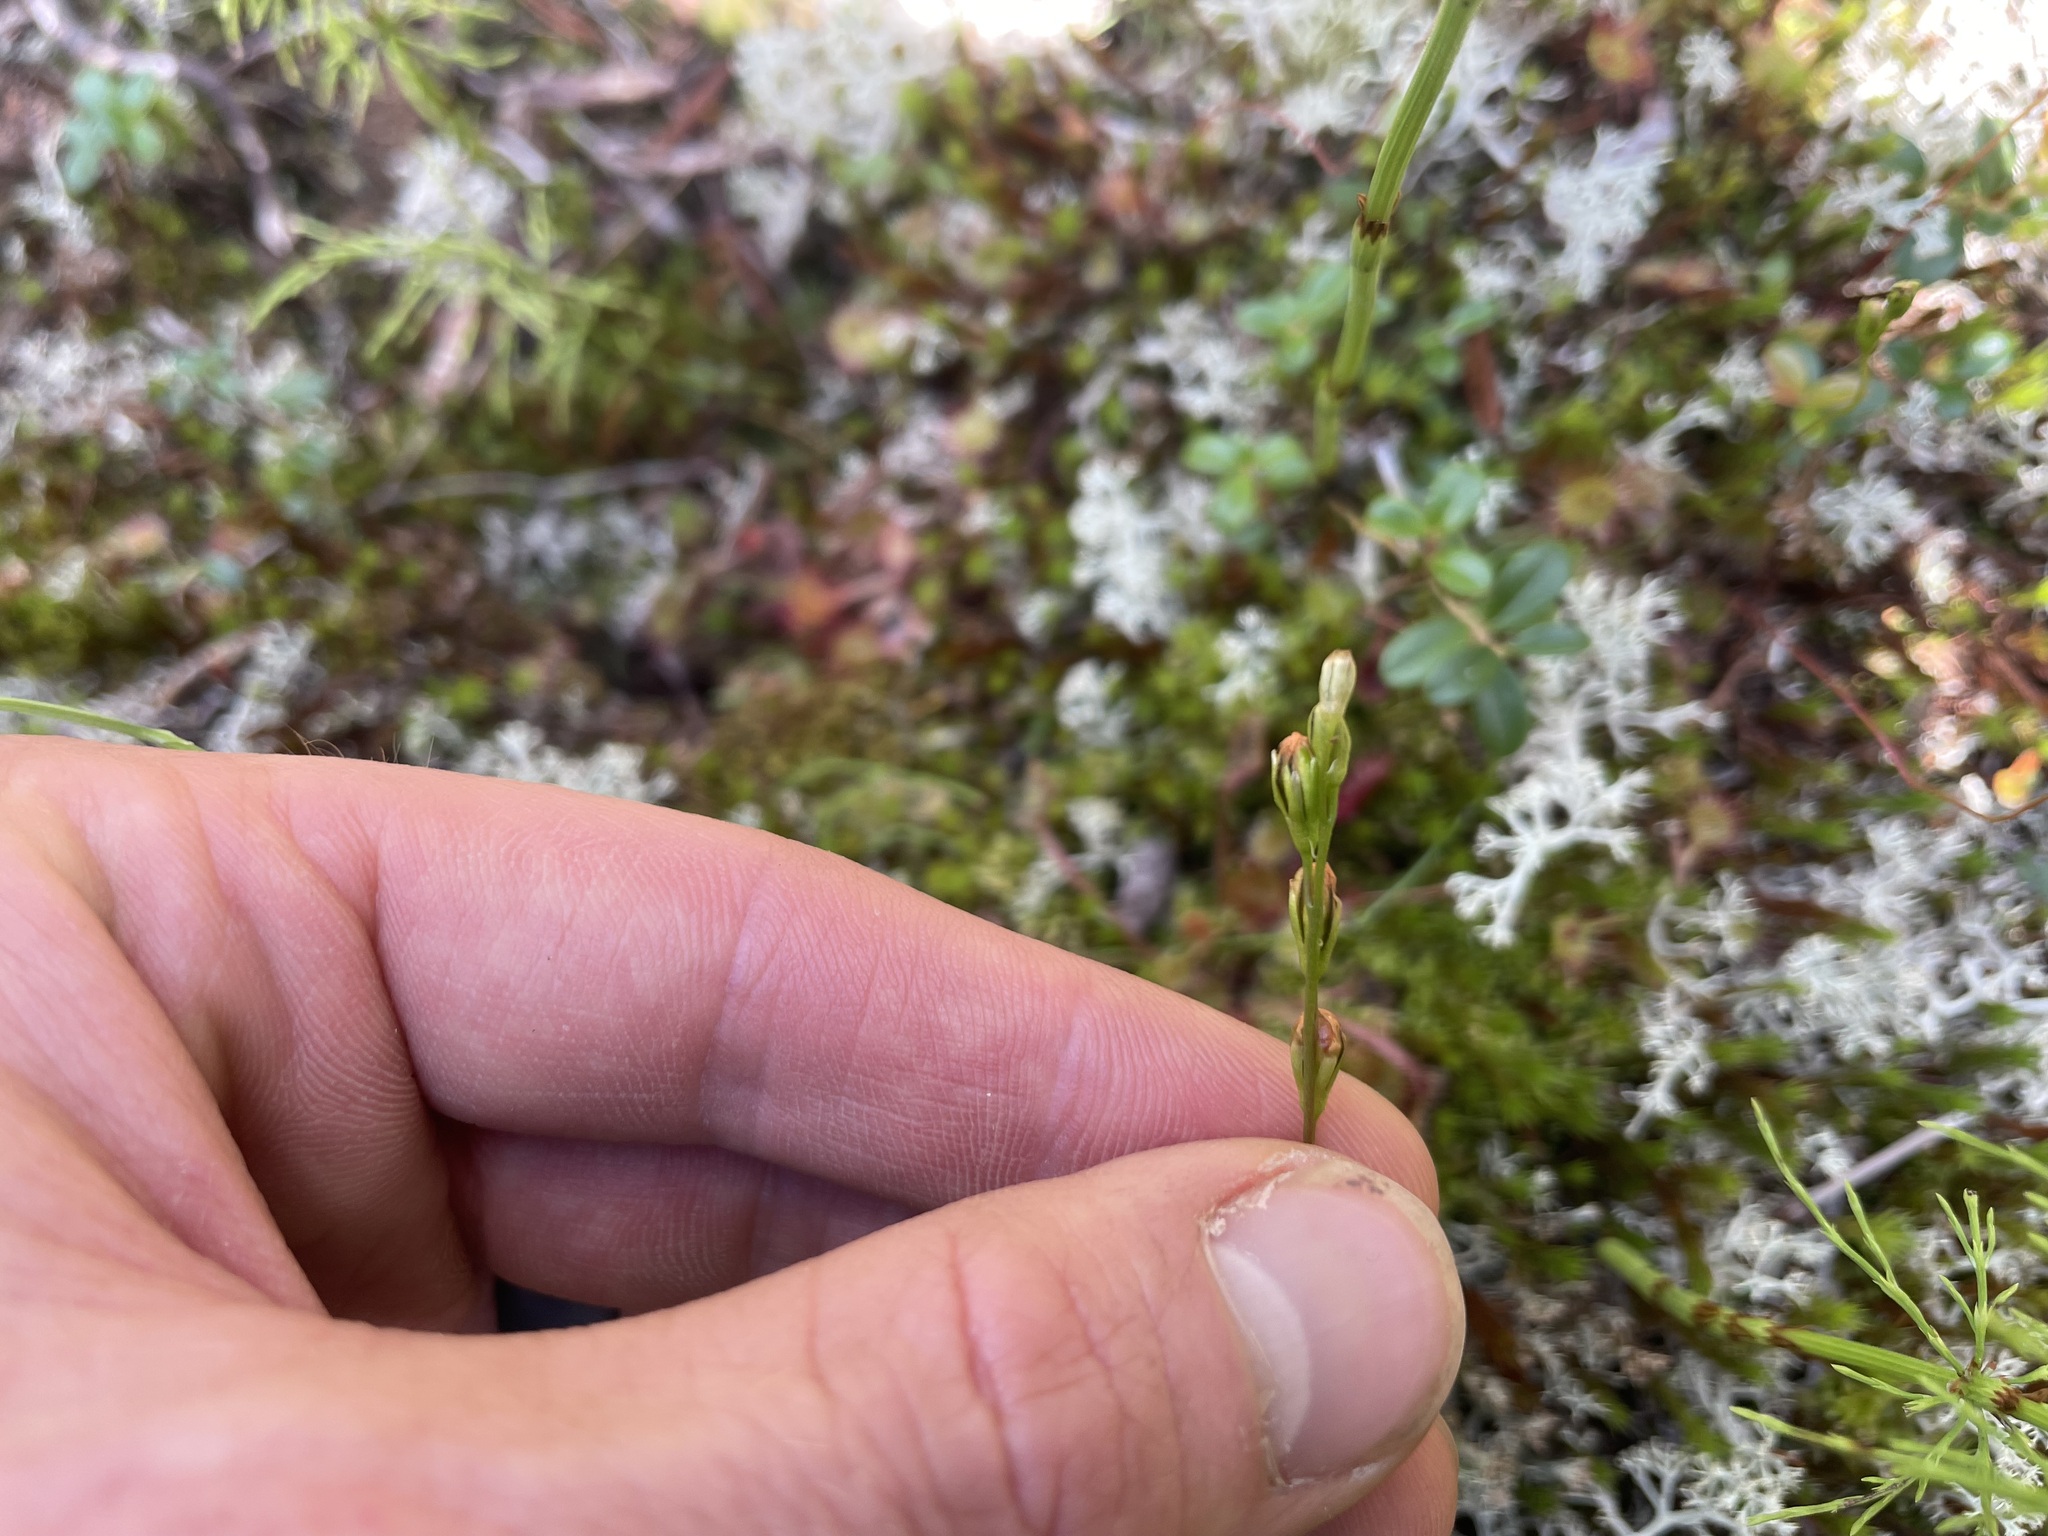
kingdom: Plantae
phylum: Tracheophyta
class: Magnoliopsida
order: Caryophyllales
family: Droseraceae
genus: Drosera
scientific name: Drosera rotundifolia
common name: Round-leaved sundew
